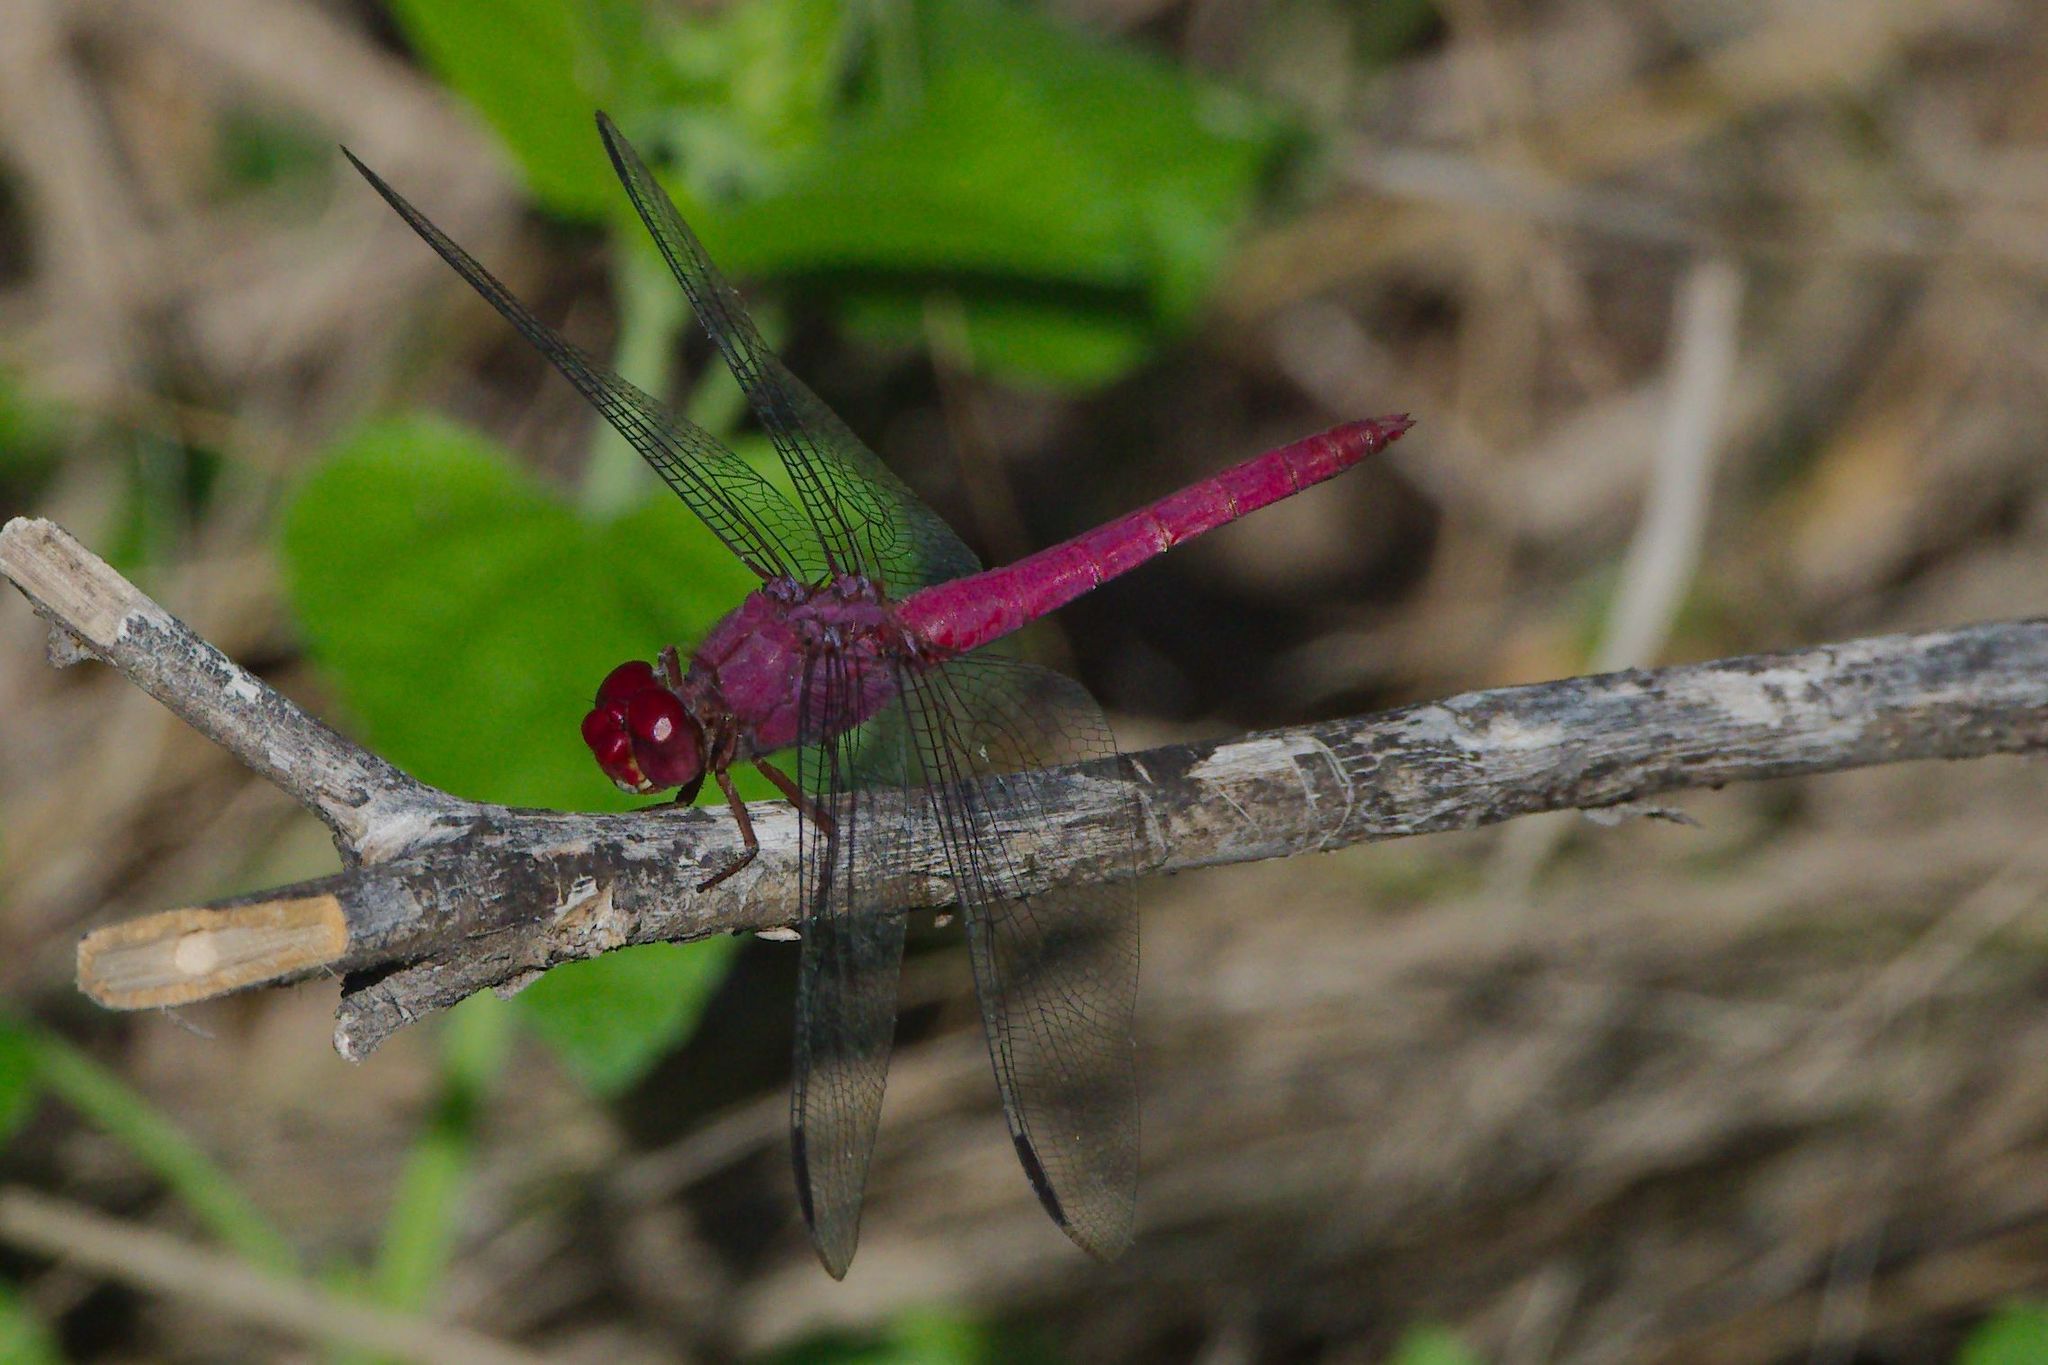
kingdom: Animalia
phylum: Arthropoda
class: Insecta
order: Odonata
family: Libellulidae
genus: Orthemis
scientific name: Orthemis discolor
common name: Carmine skimmer
